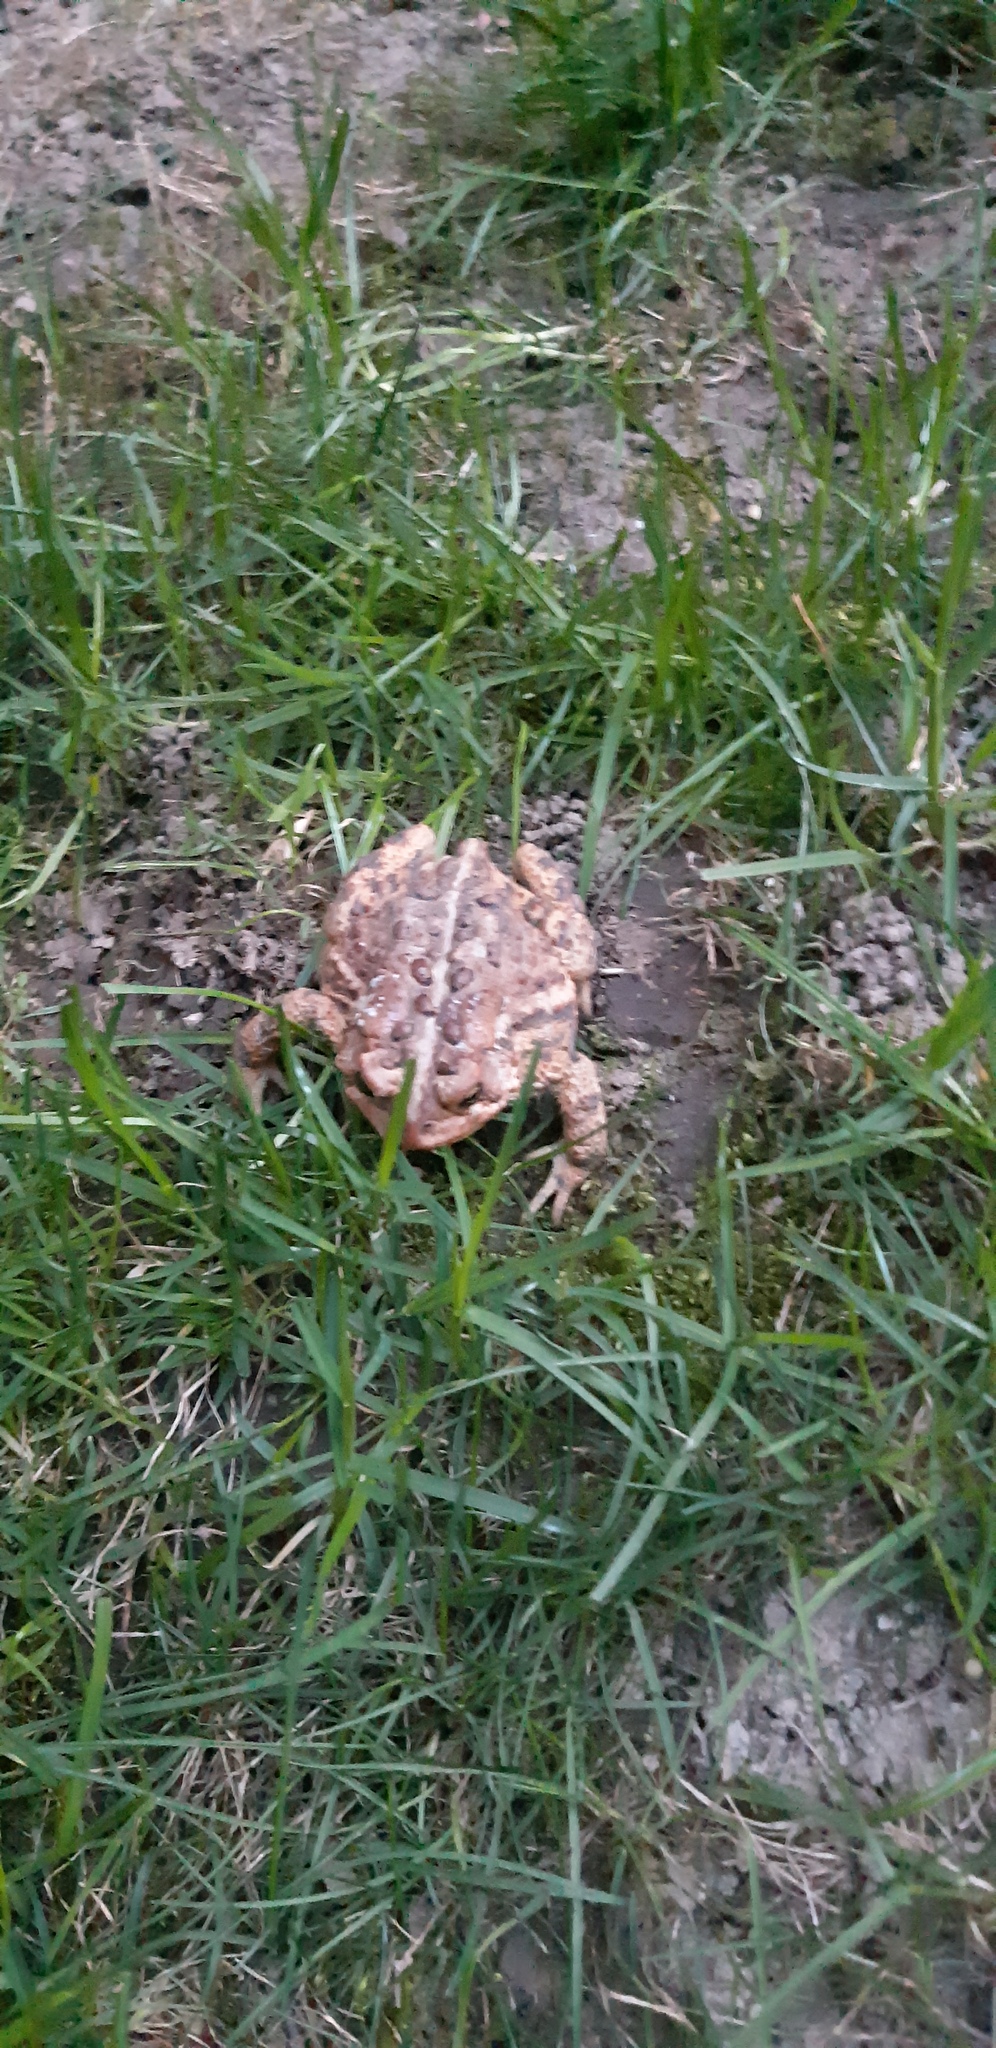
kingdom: Animalia
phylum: Chordata
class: Amphibia
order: Anura
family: Bufonidae
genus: Anaxyrus
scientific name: Anaxyrus americanus
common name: American toad
